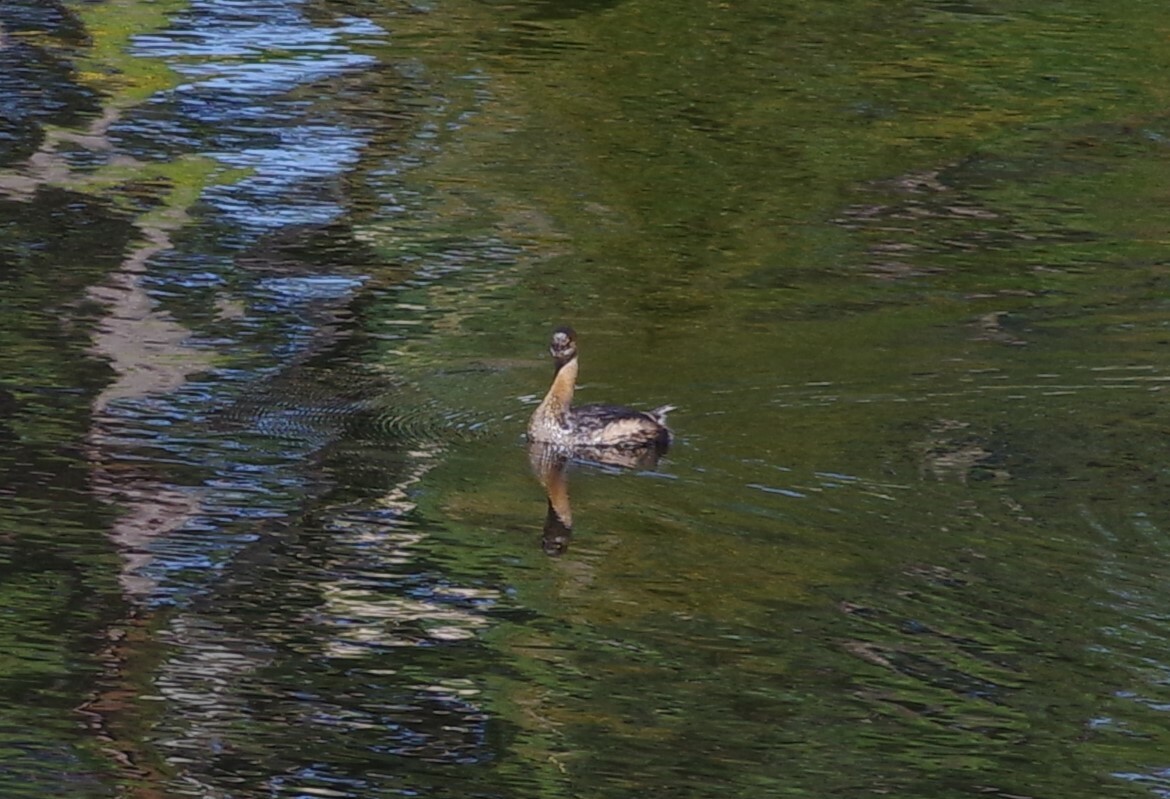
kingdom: Animalia
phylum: Chordata
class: Aves
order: Podicipediformes
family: Podicipedidae
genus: Podilymbus
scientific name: Podilymbus podiceps
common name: Pied-billed grebe
